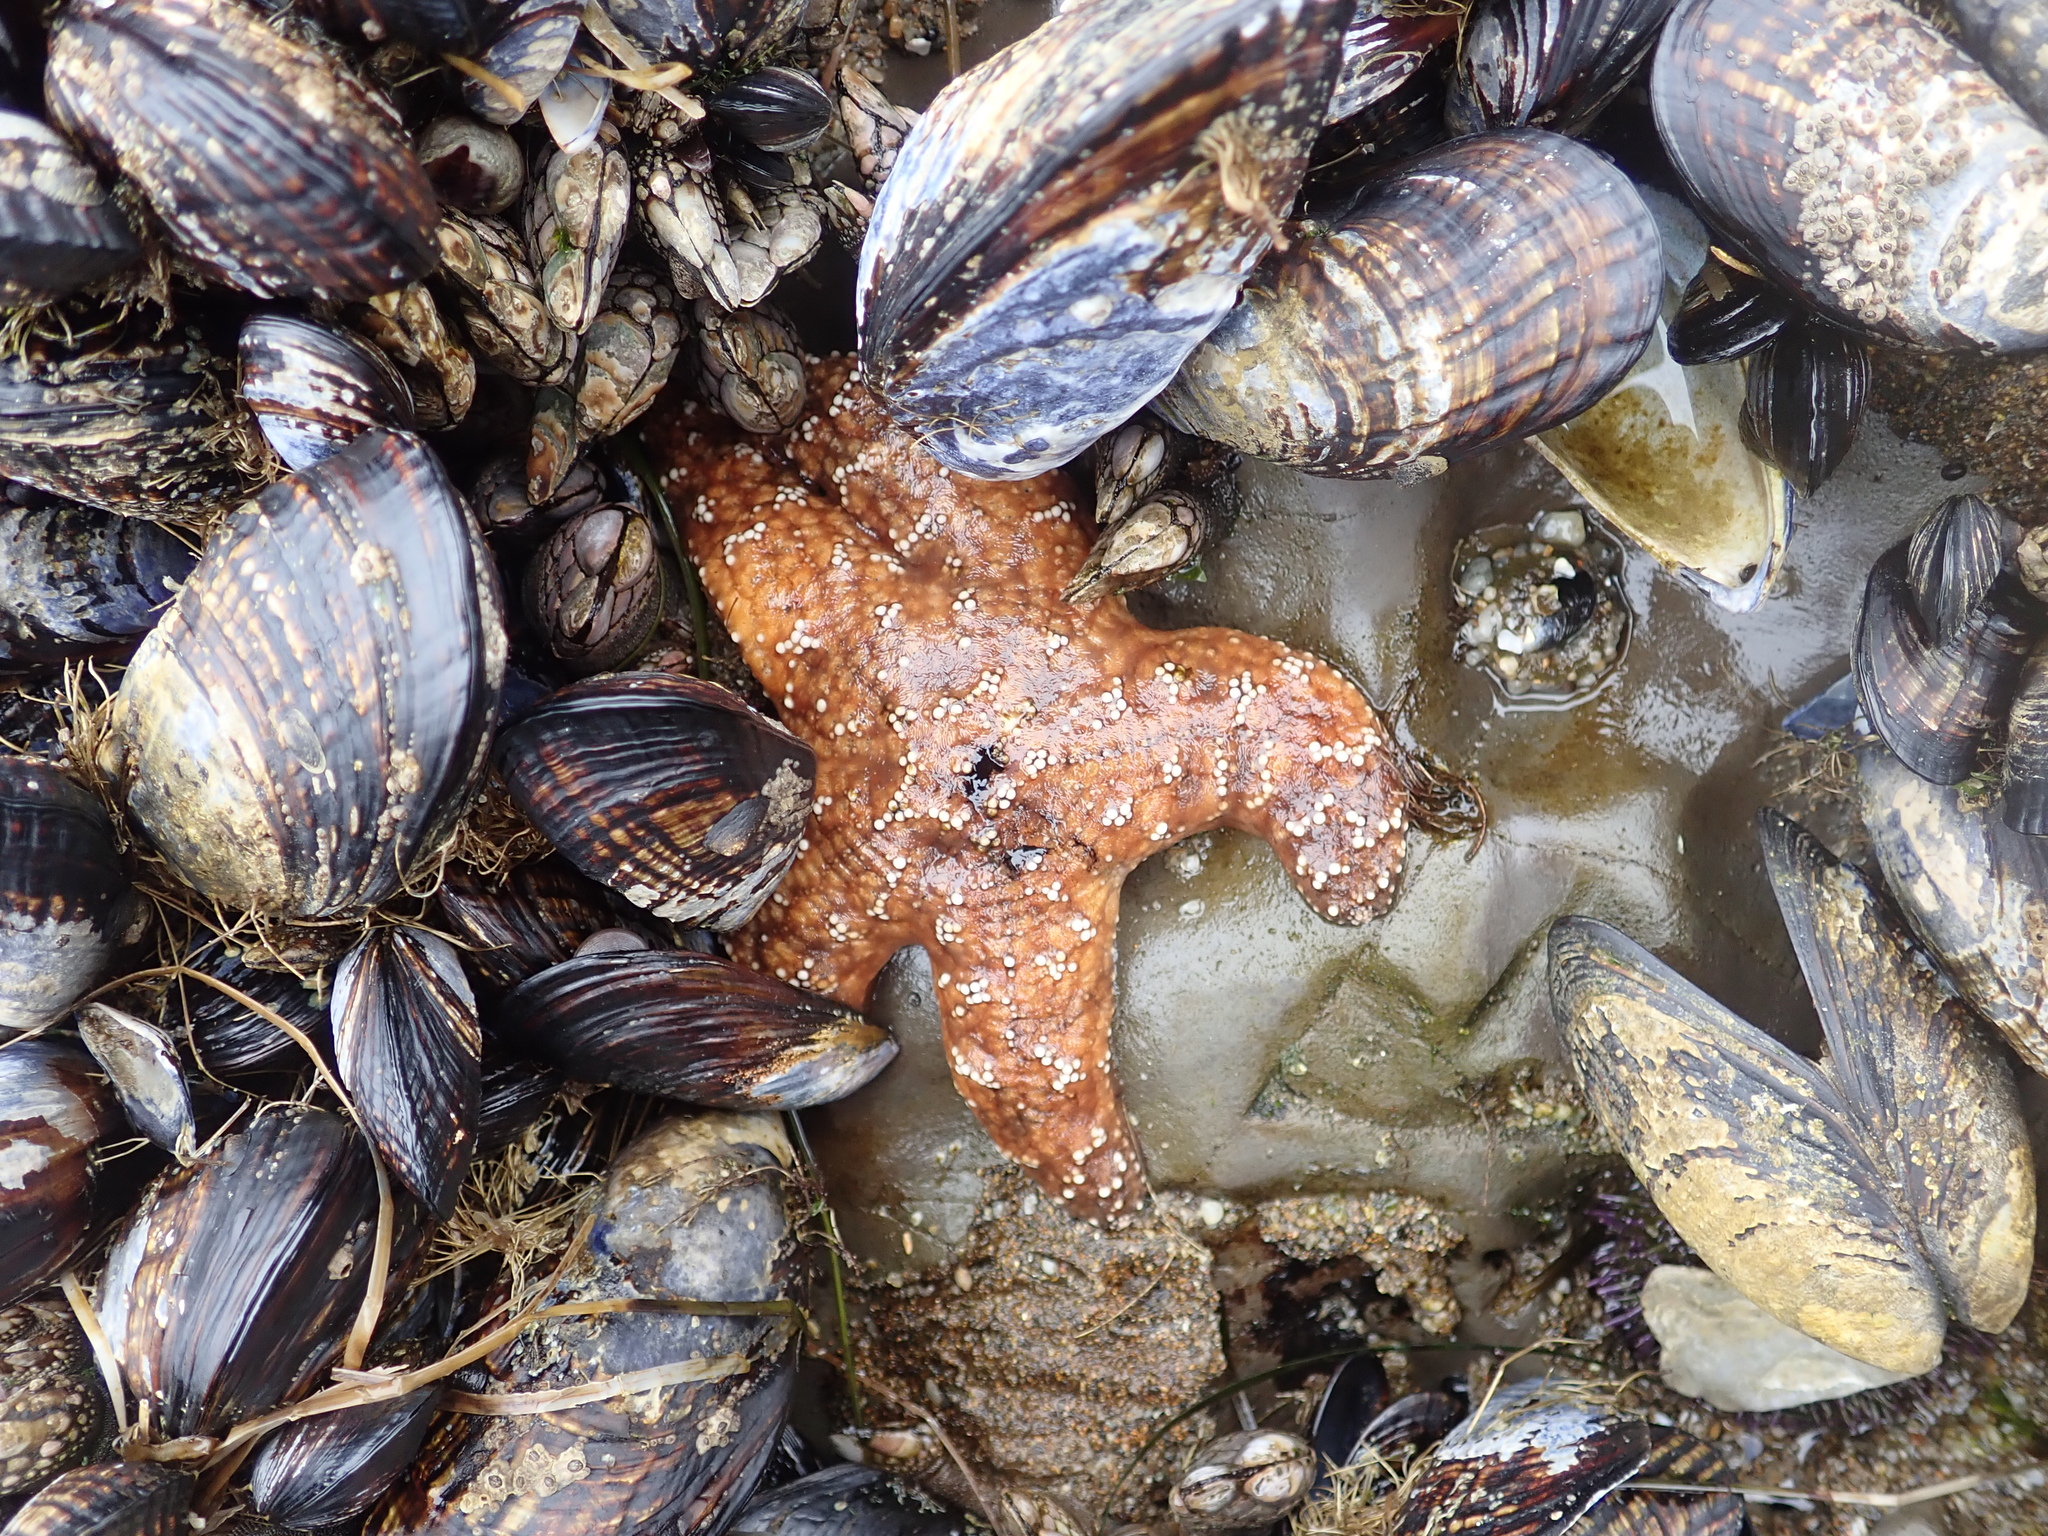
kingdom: Animalia
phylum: Echinodermata
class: Asteroidea
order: Forcipulatida
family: Asteriidae
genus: Pisaster
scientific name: Pisaster ochraceus
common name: Ochre stars
